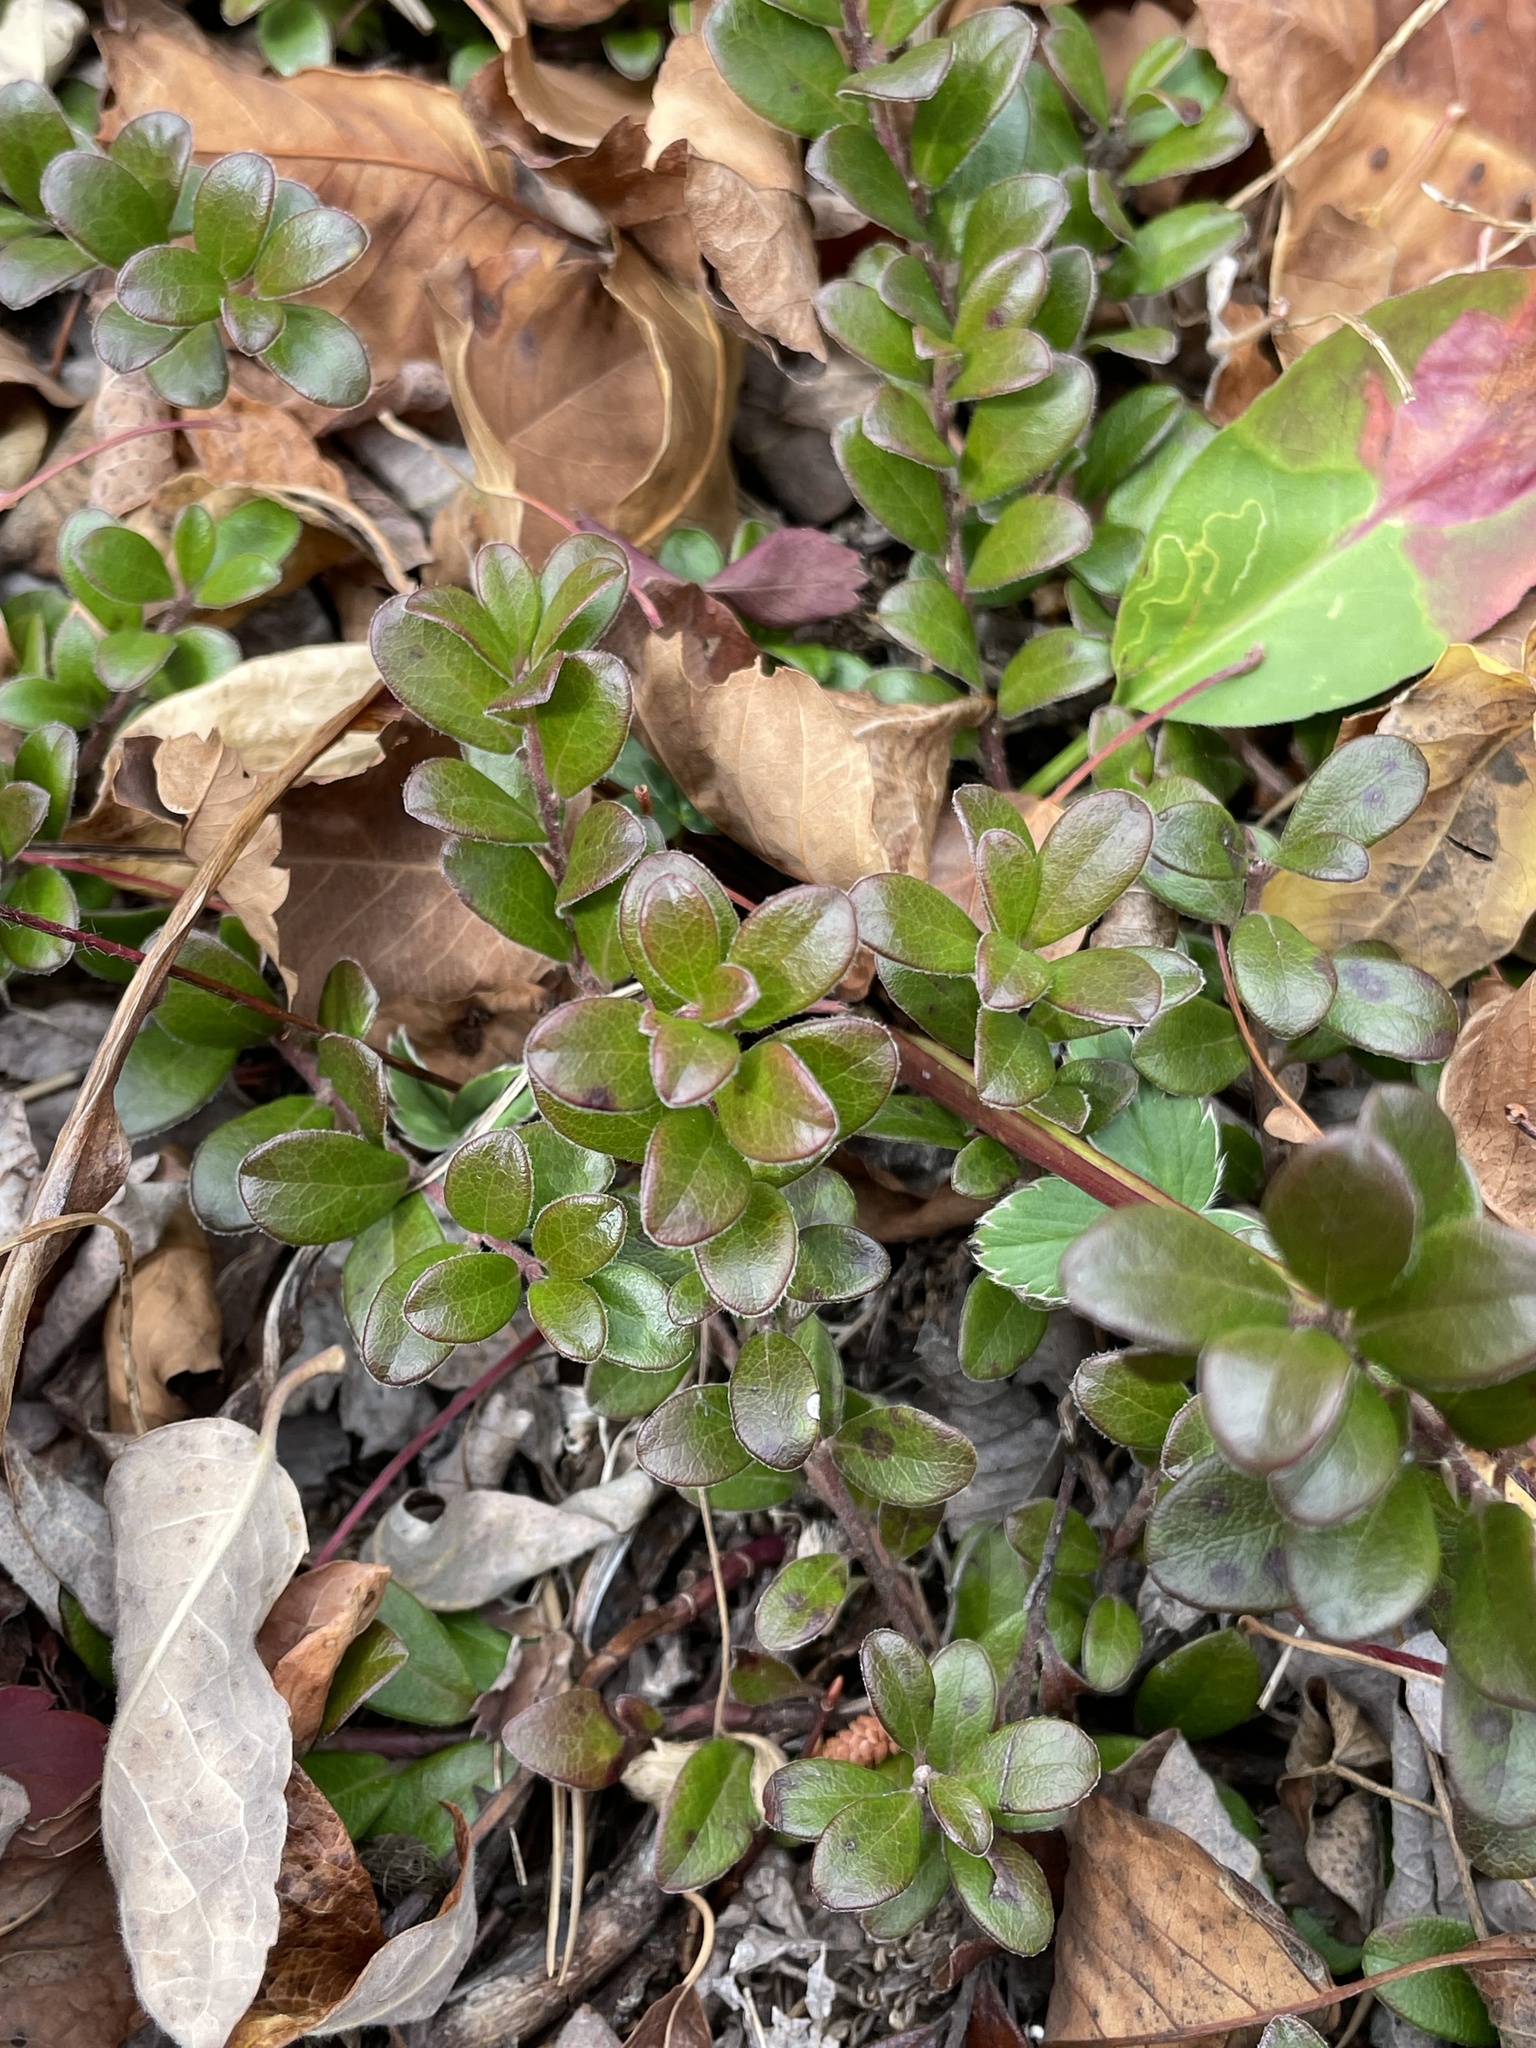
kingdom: Plantae
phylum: Tracheophyta
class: Magnoliopsida
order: Ericales
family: Ericaceae
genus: Arctostaphylos
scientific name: Arctostaphylos uva-ursi
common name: Bearberry
